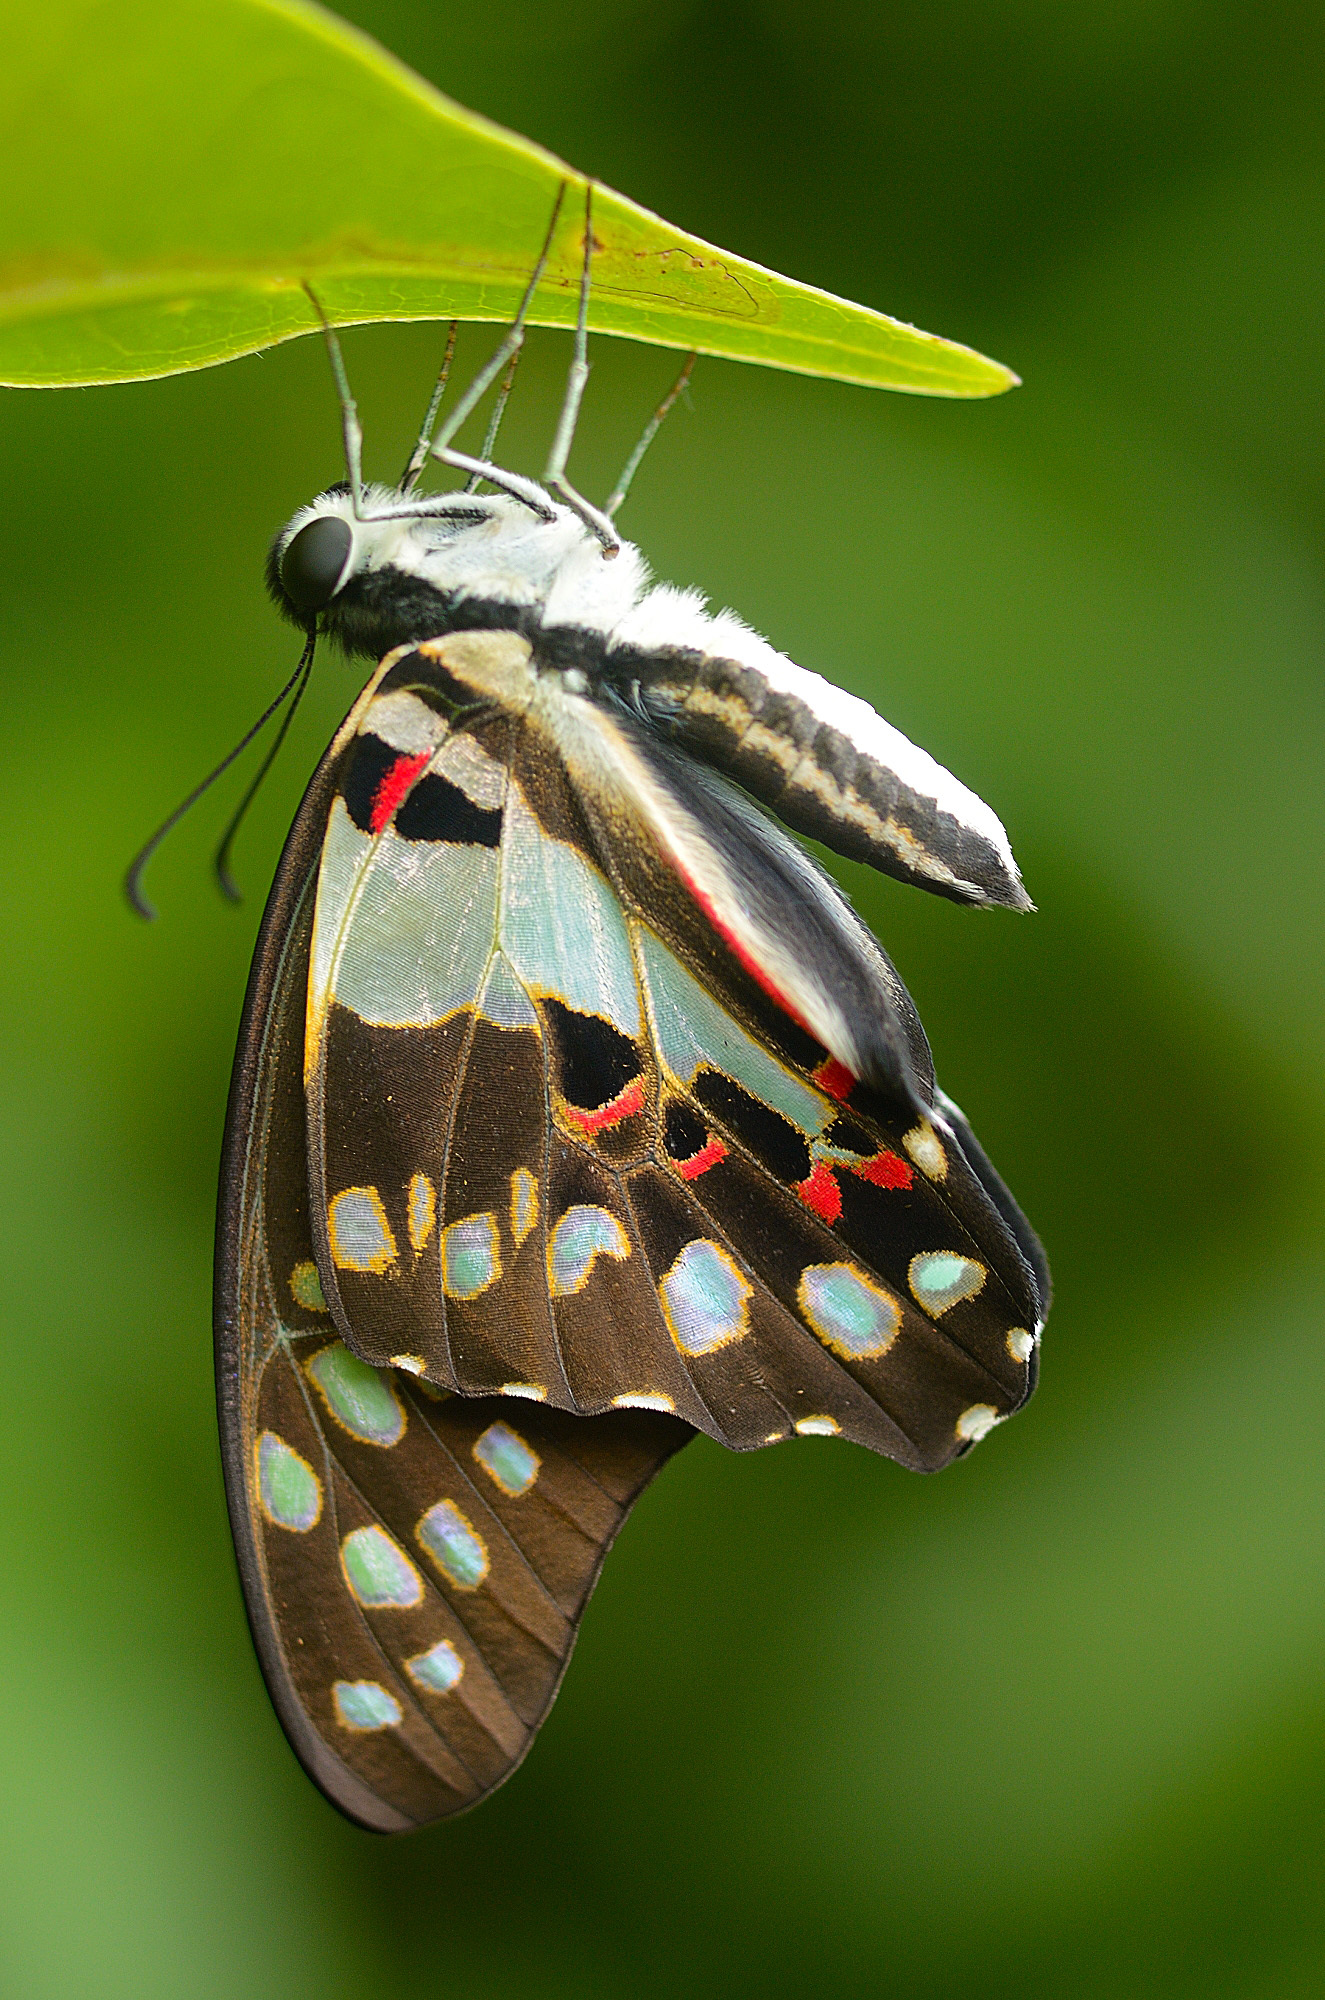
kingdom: Animalia
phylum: Arthropoda
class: Insecta
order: Lepidoptera
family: Papilionidae
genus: Graphium
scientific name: Graphium doson
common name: Common jay
